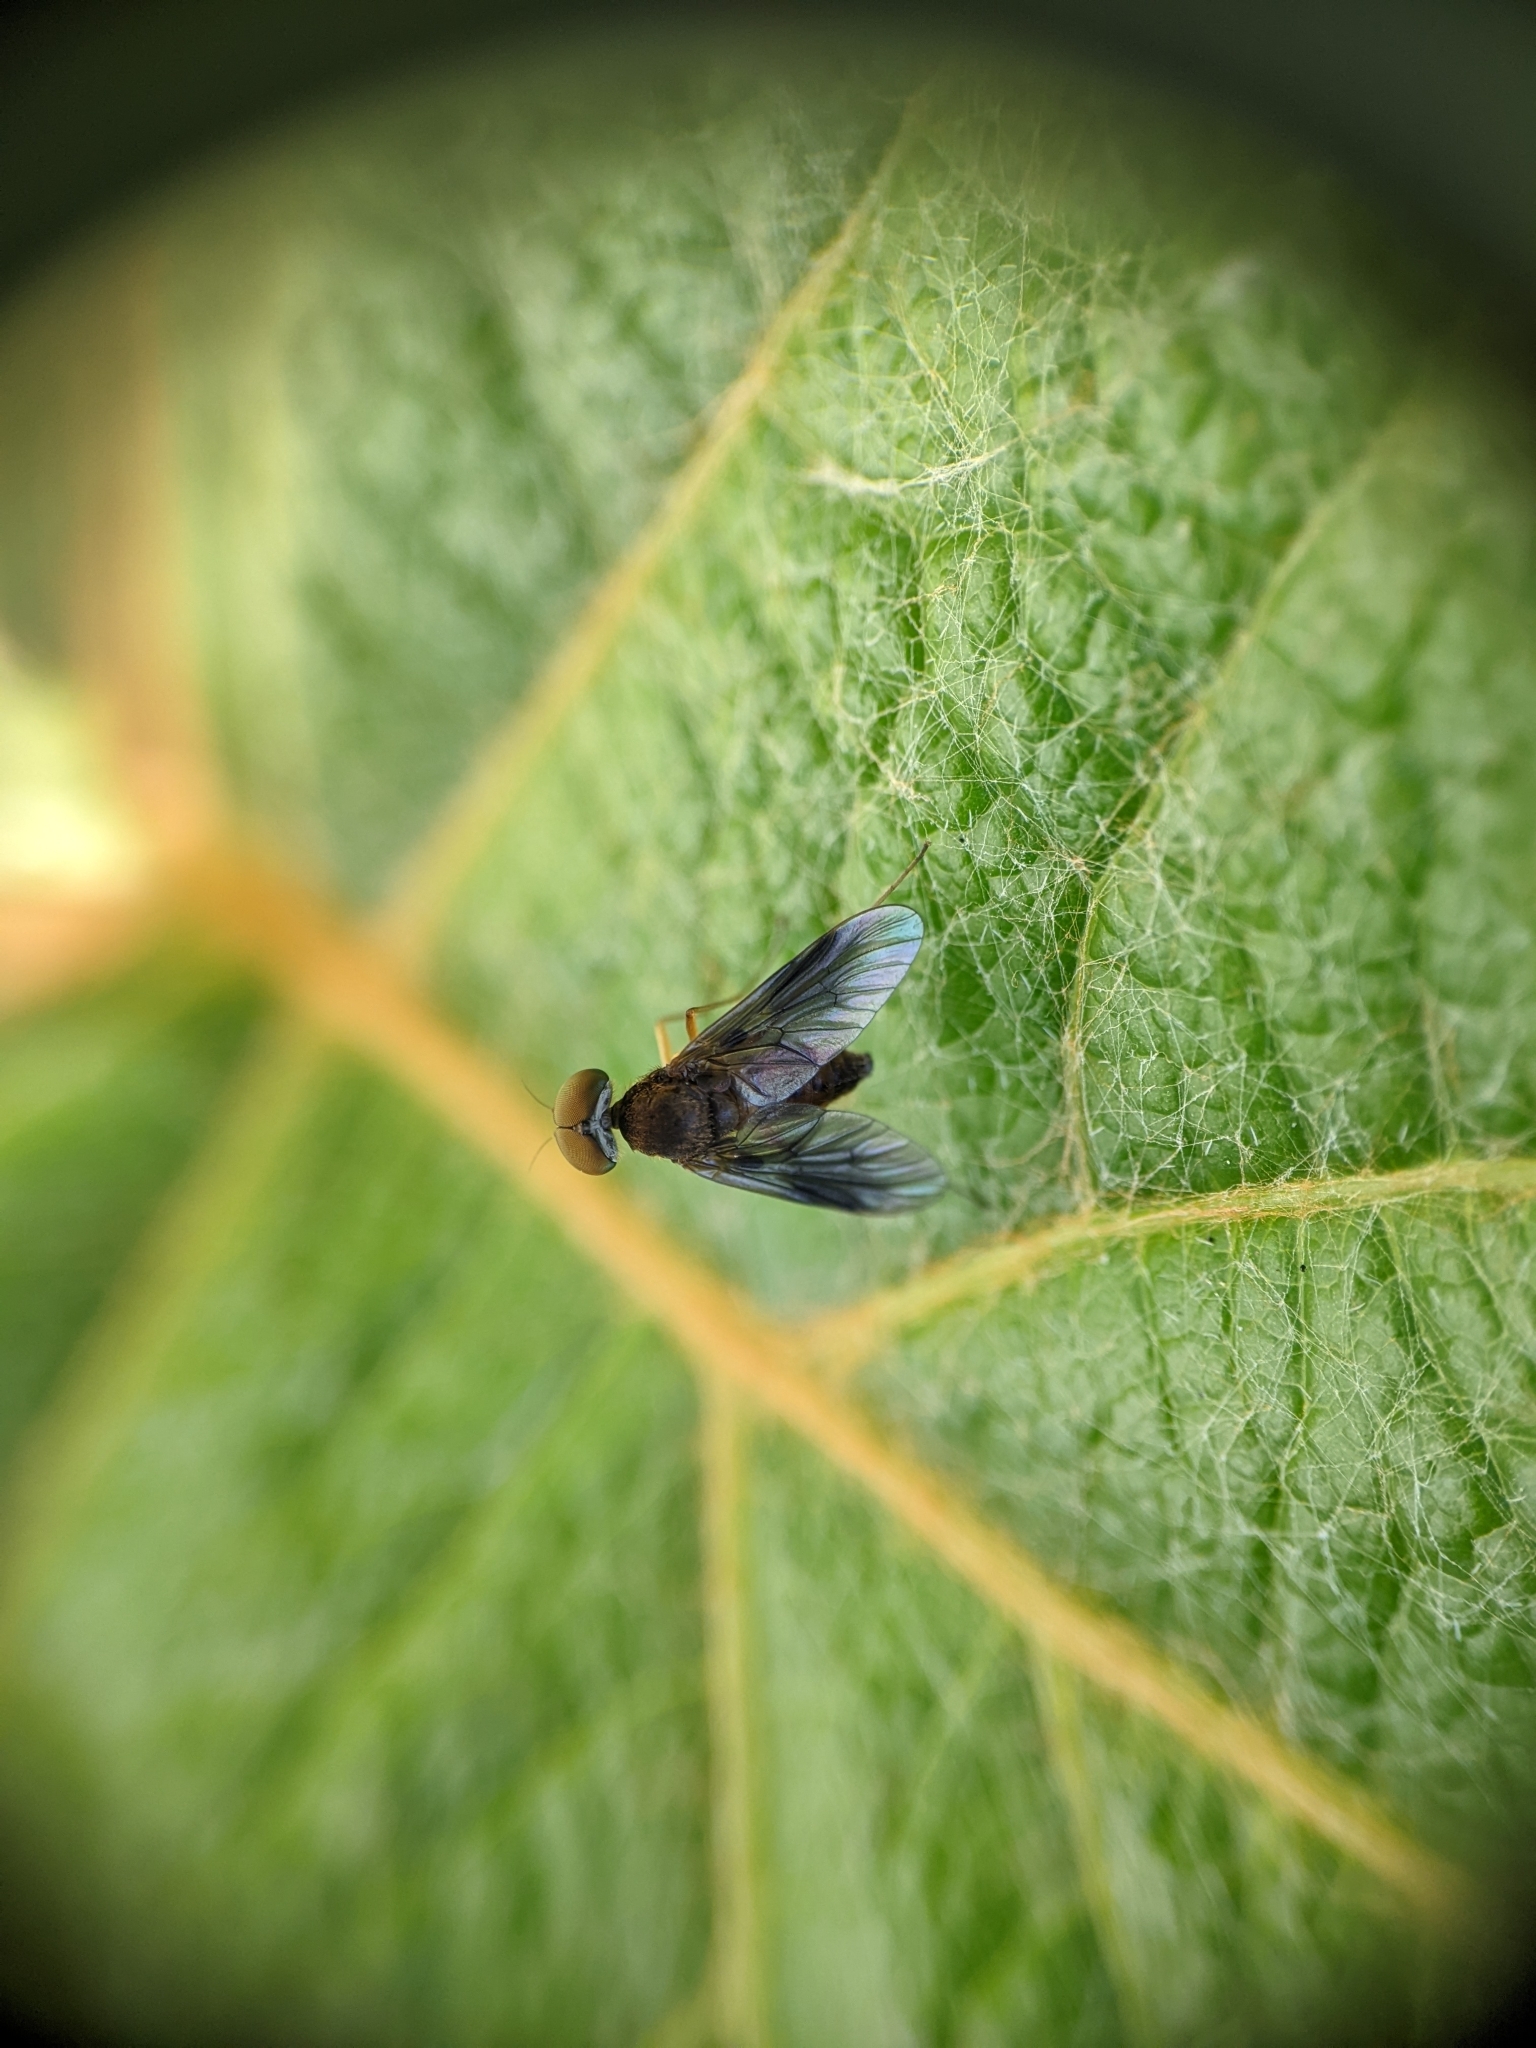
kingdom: Animalia
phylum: Arthropoda
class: Insecta
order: Diptera
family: Rhagionidae
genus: Chrysopilus
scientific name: Chrysopilus quadratus
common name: Quadrate snipe fly
